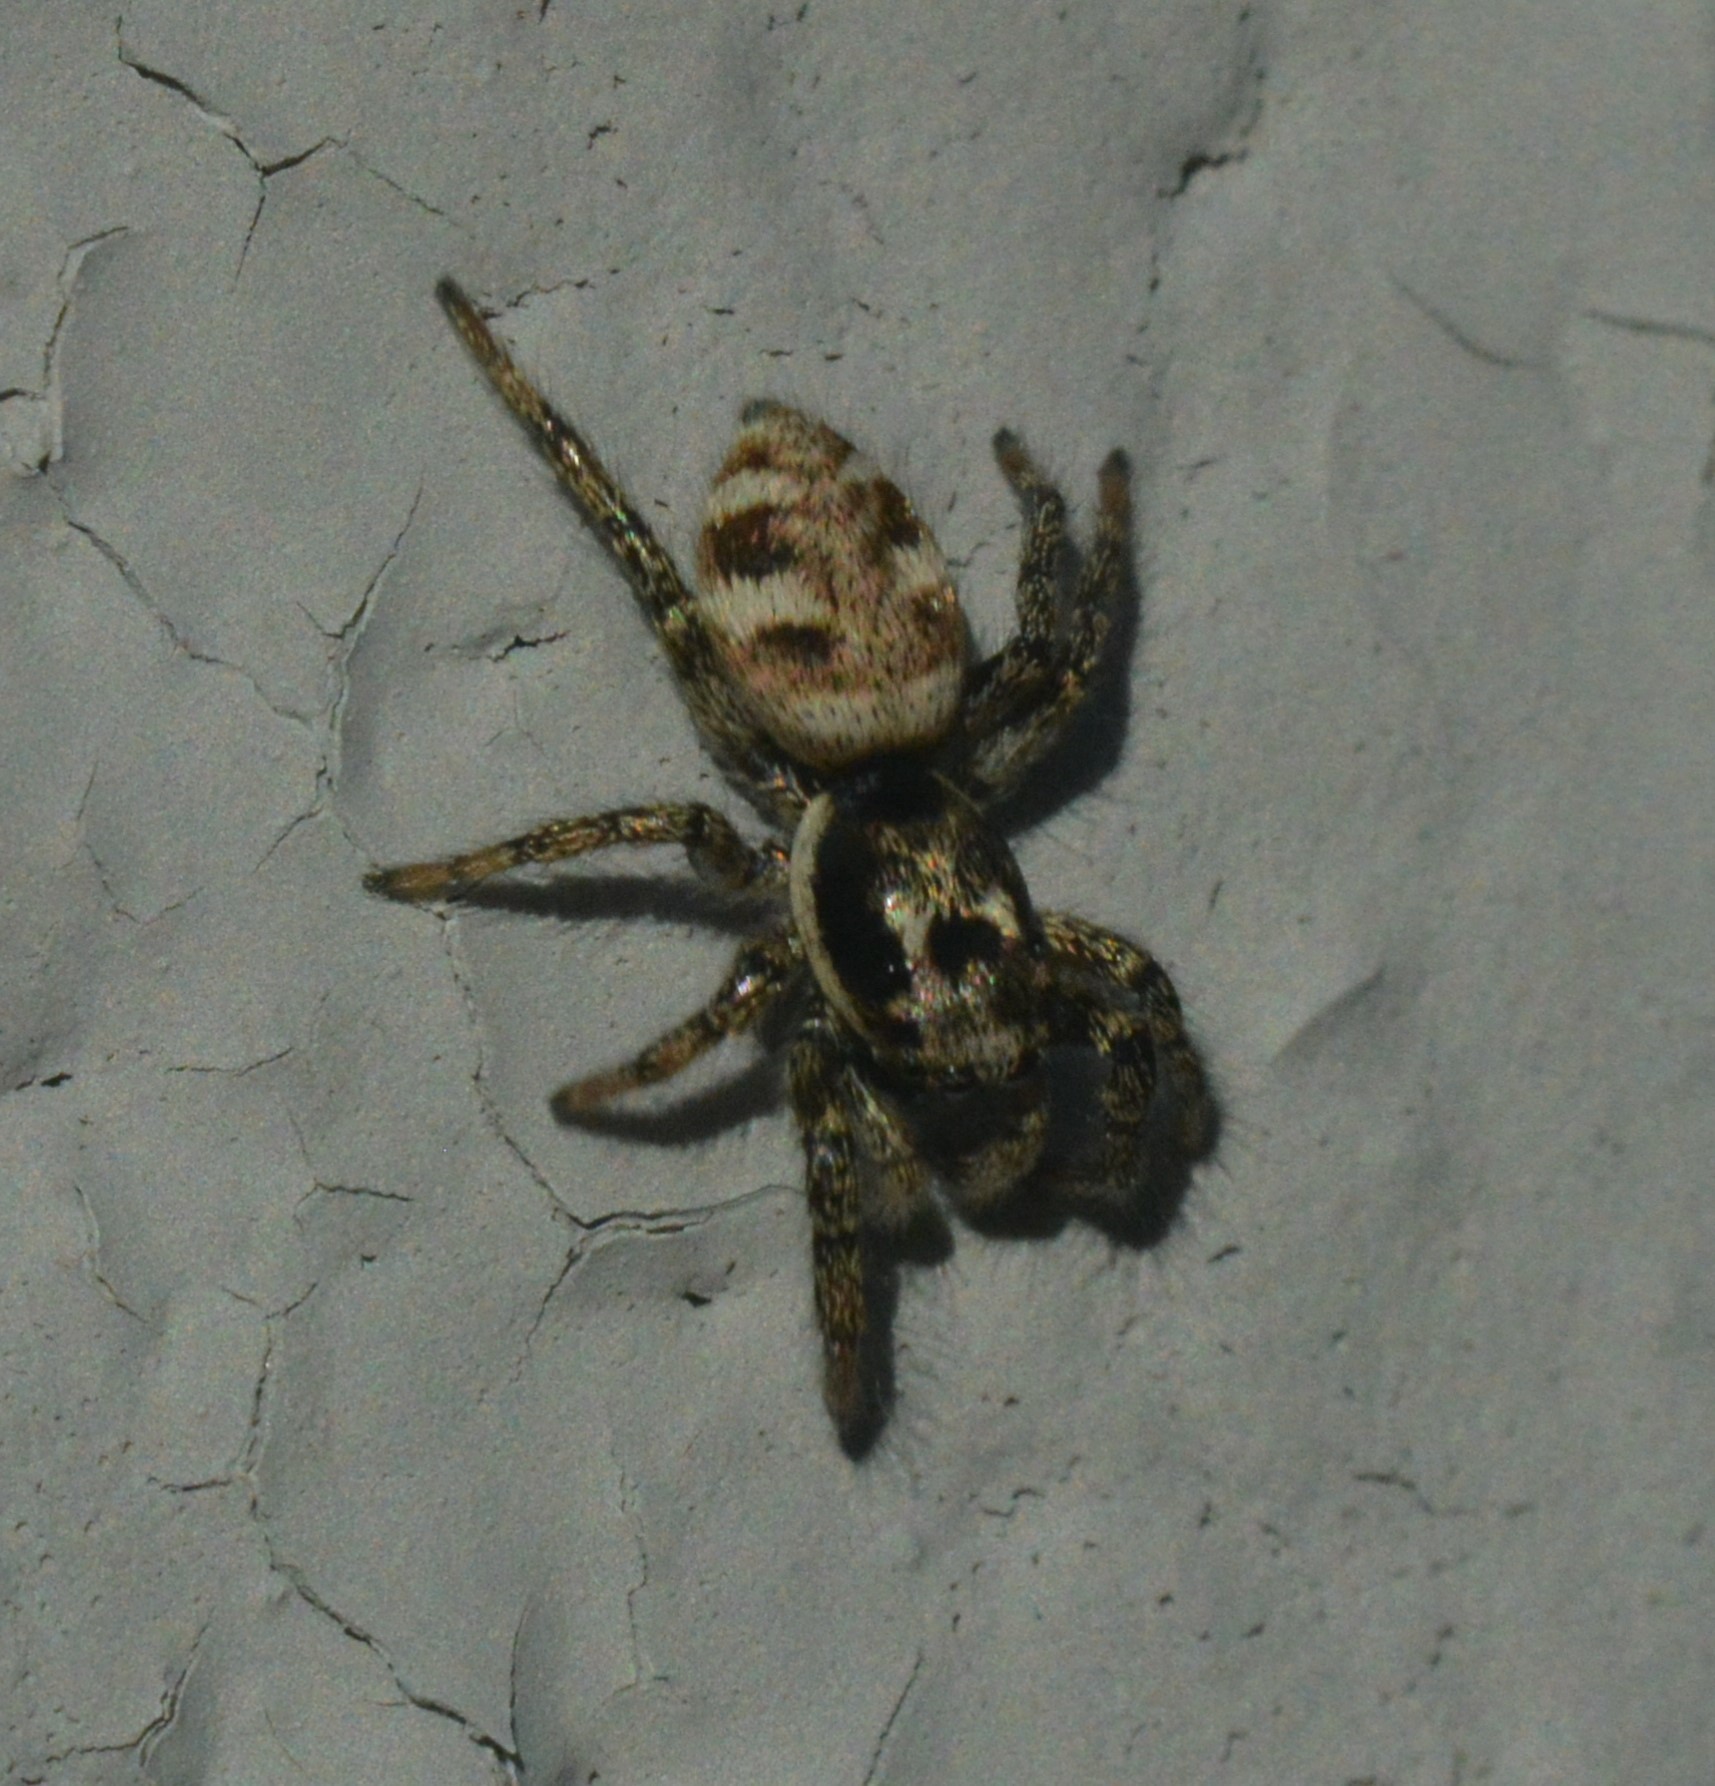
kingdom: Animalia
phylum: Arthropoda
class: Arachnida
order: Araneae
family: Salticidae
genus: Salticus
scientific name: Salticus scenicus
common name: Zebra jumper
